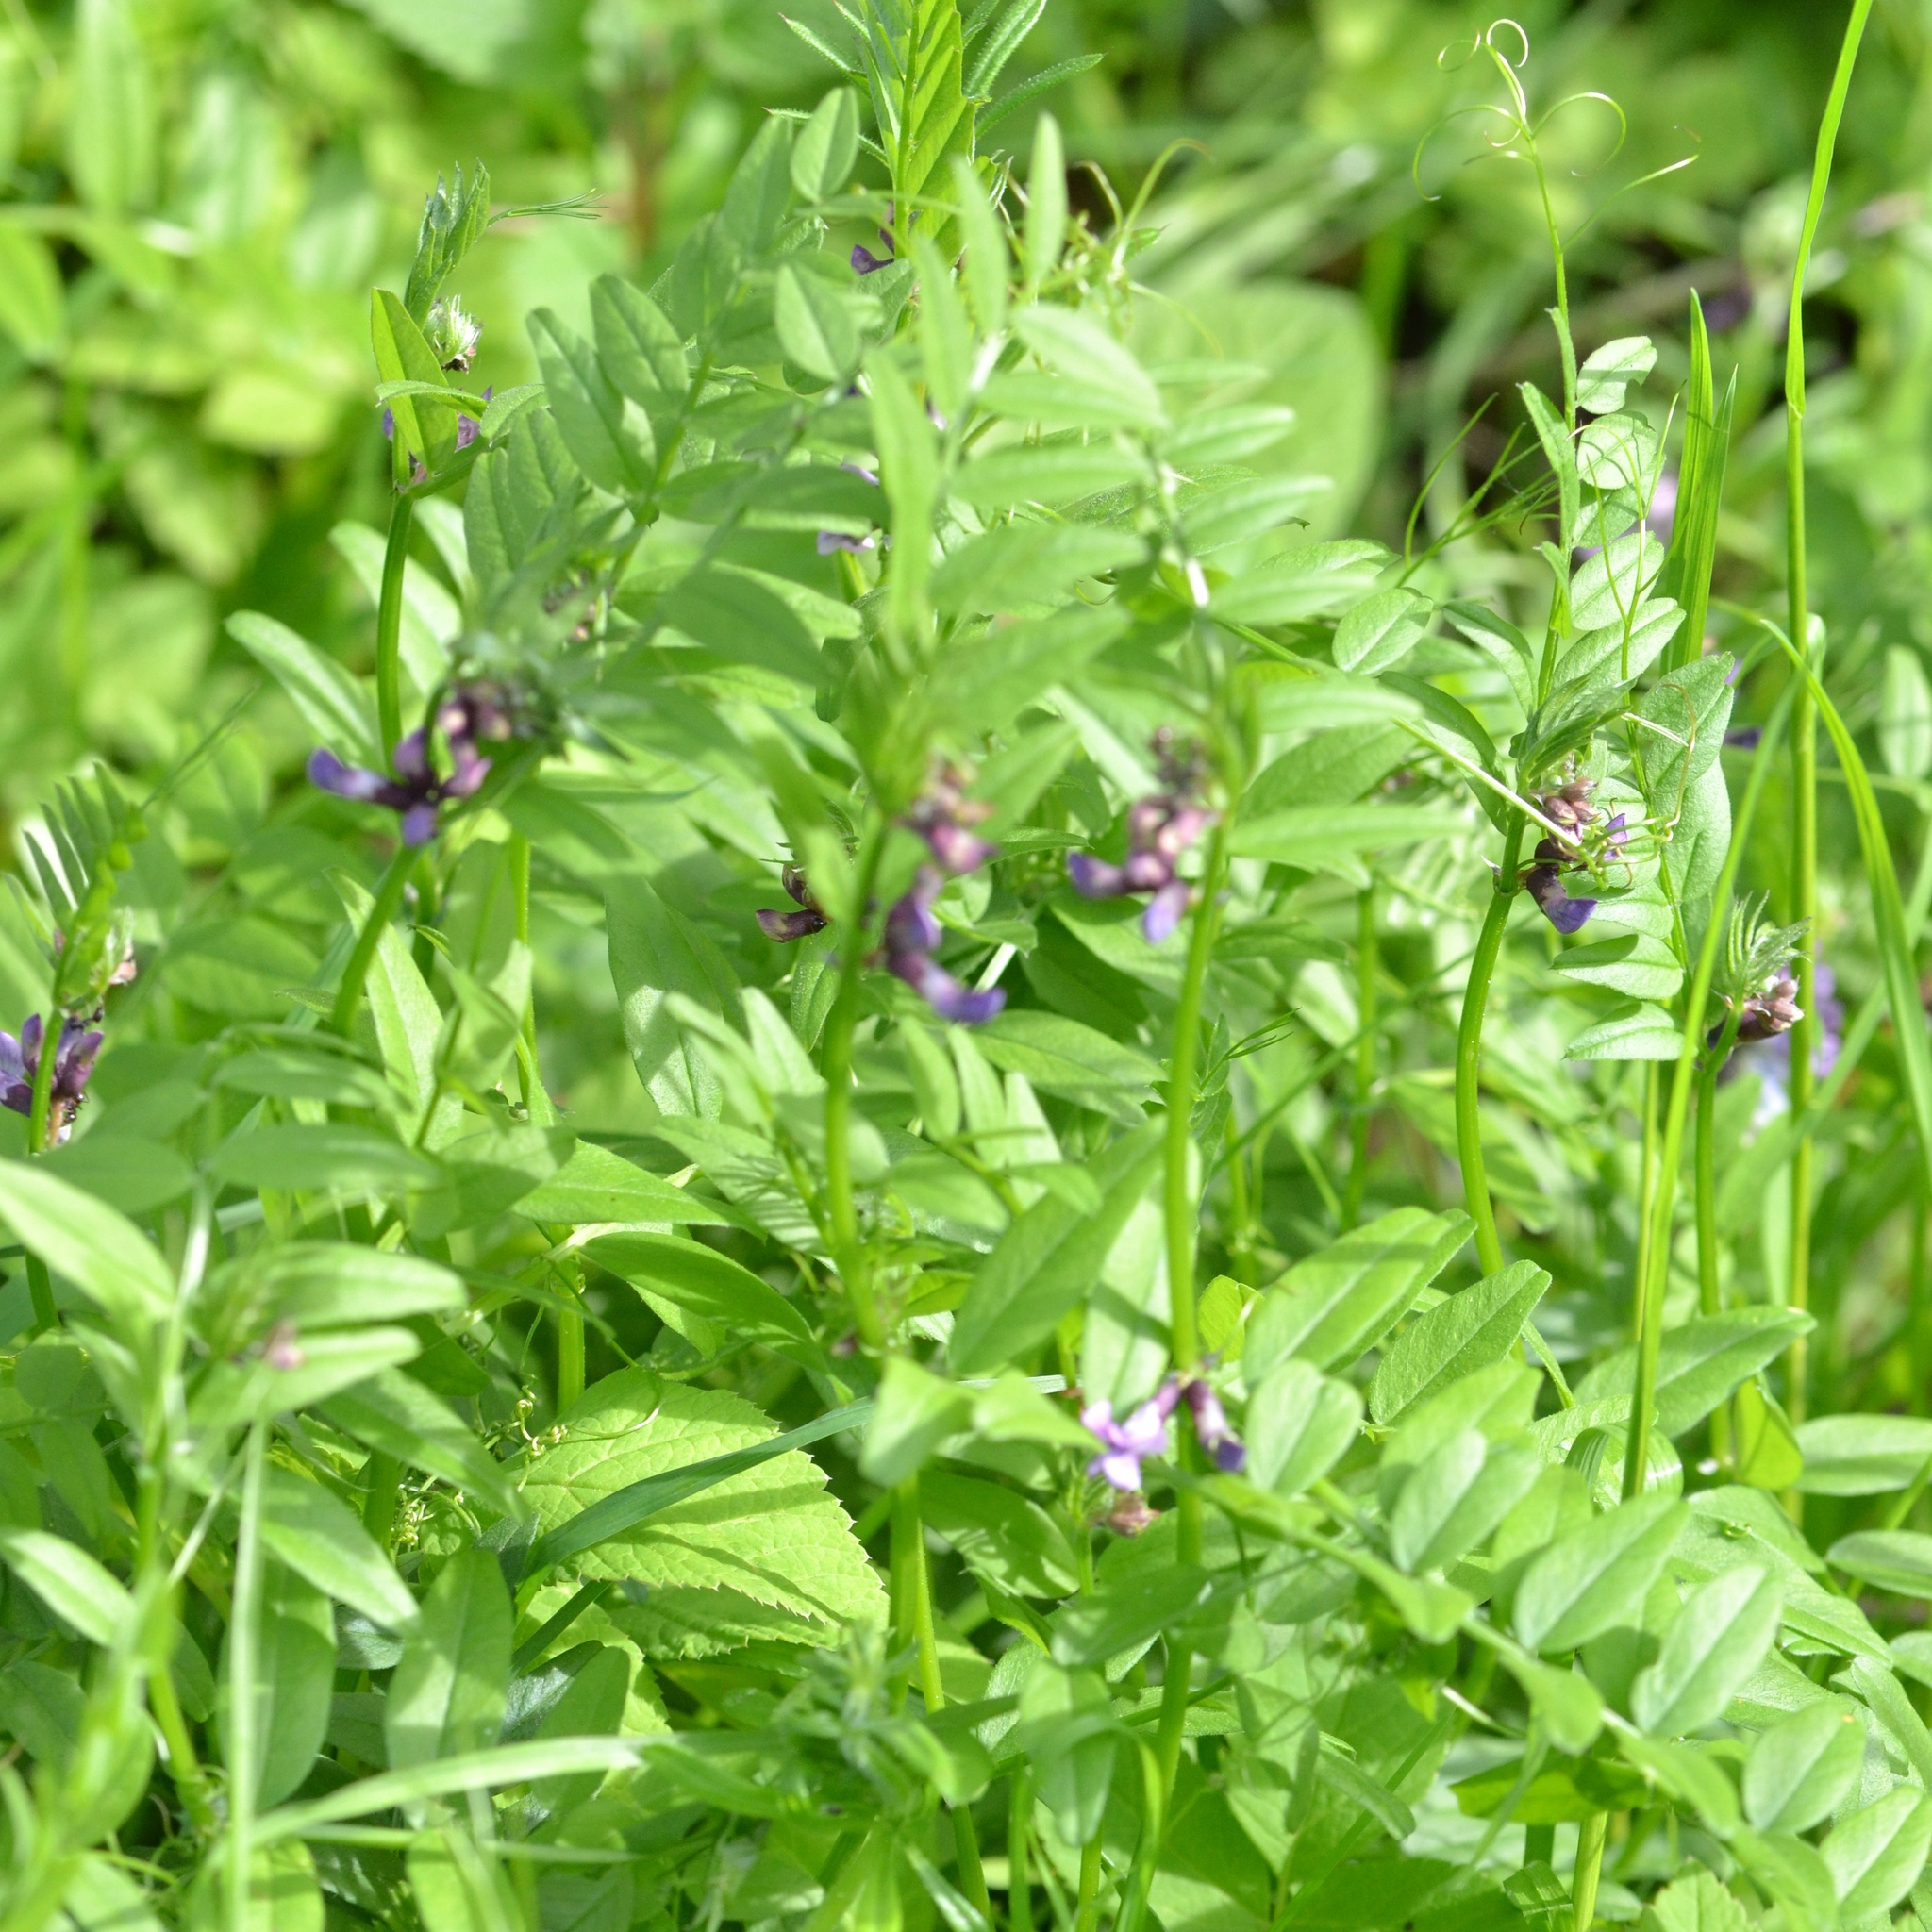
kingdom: Plantae
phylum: Tracheophyta
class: Magnoliopsida
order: Fabales
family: Fabaceae
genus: Vicia
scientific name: Vicia sepium
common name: Bush vetch
